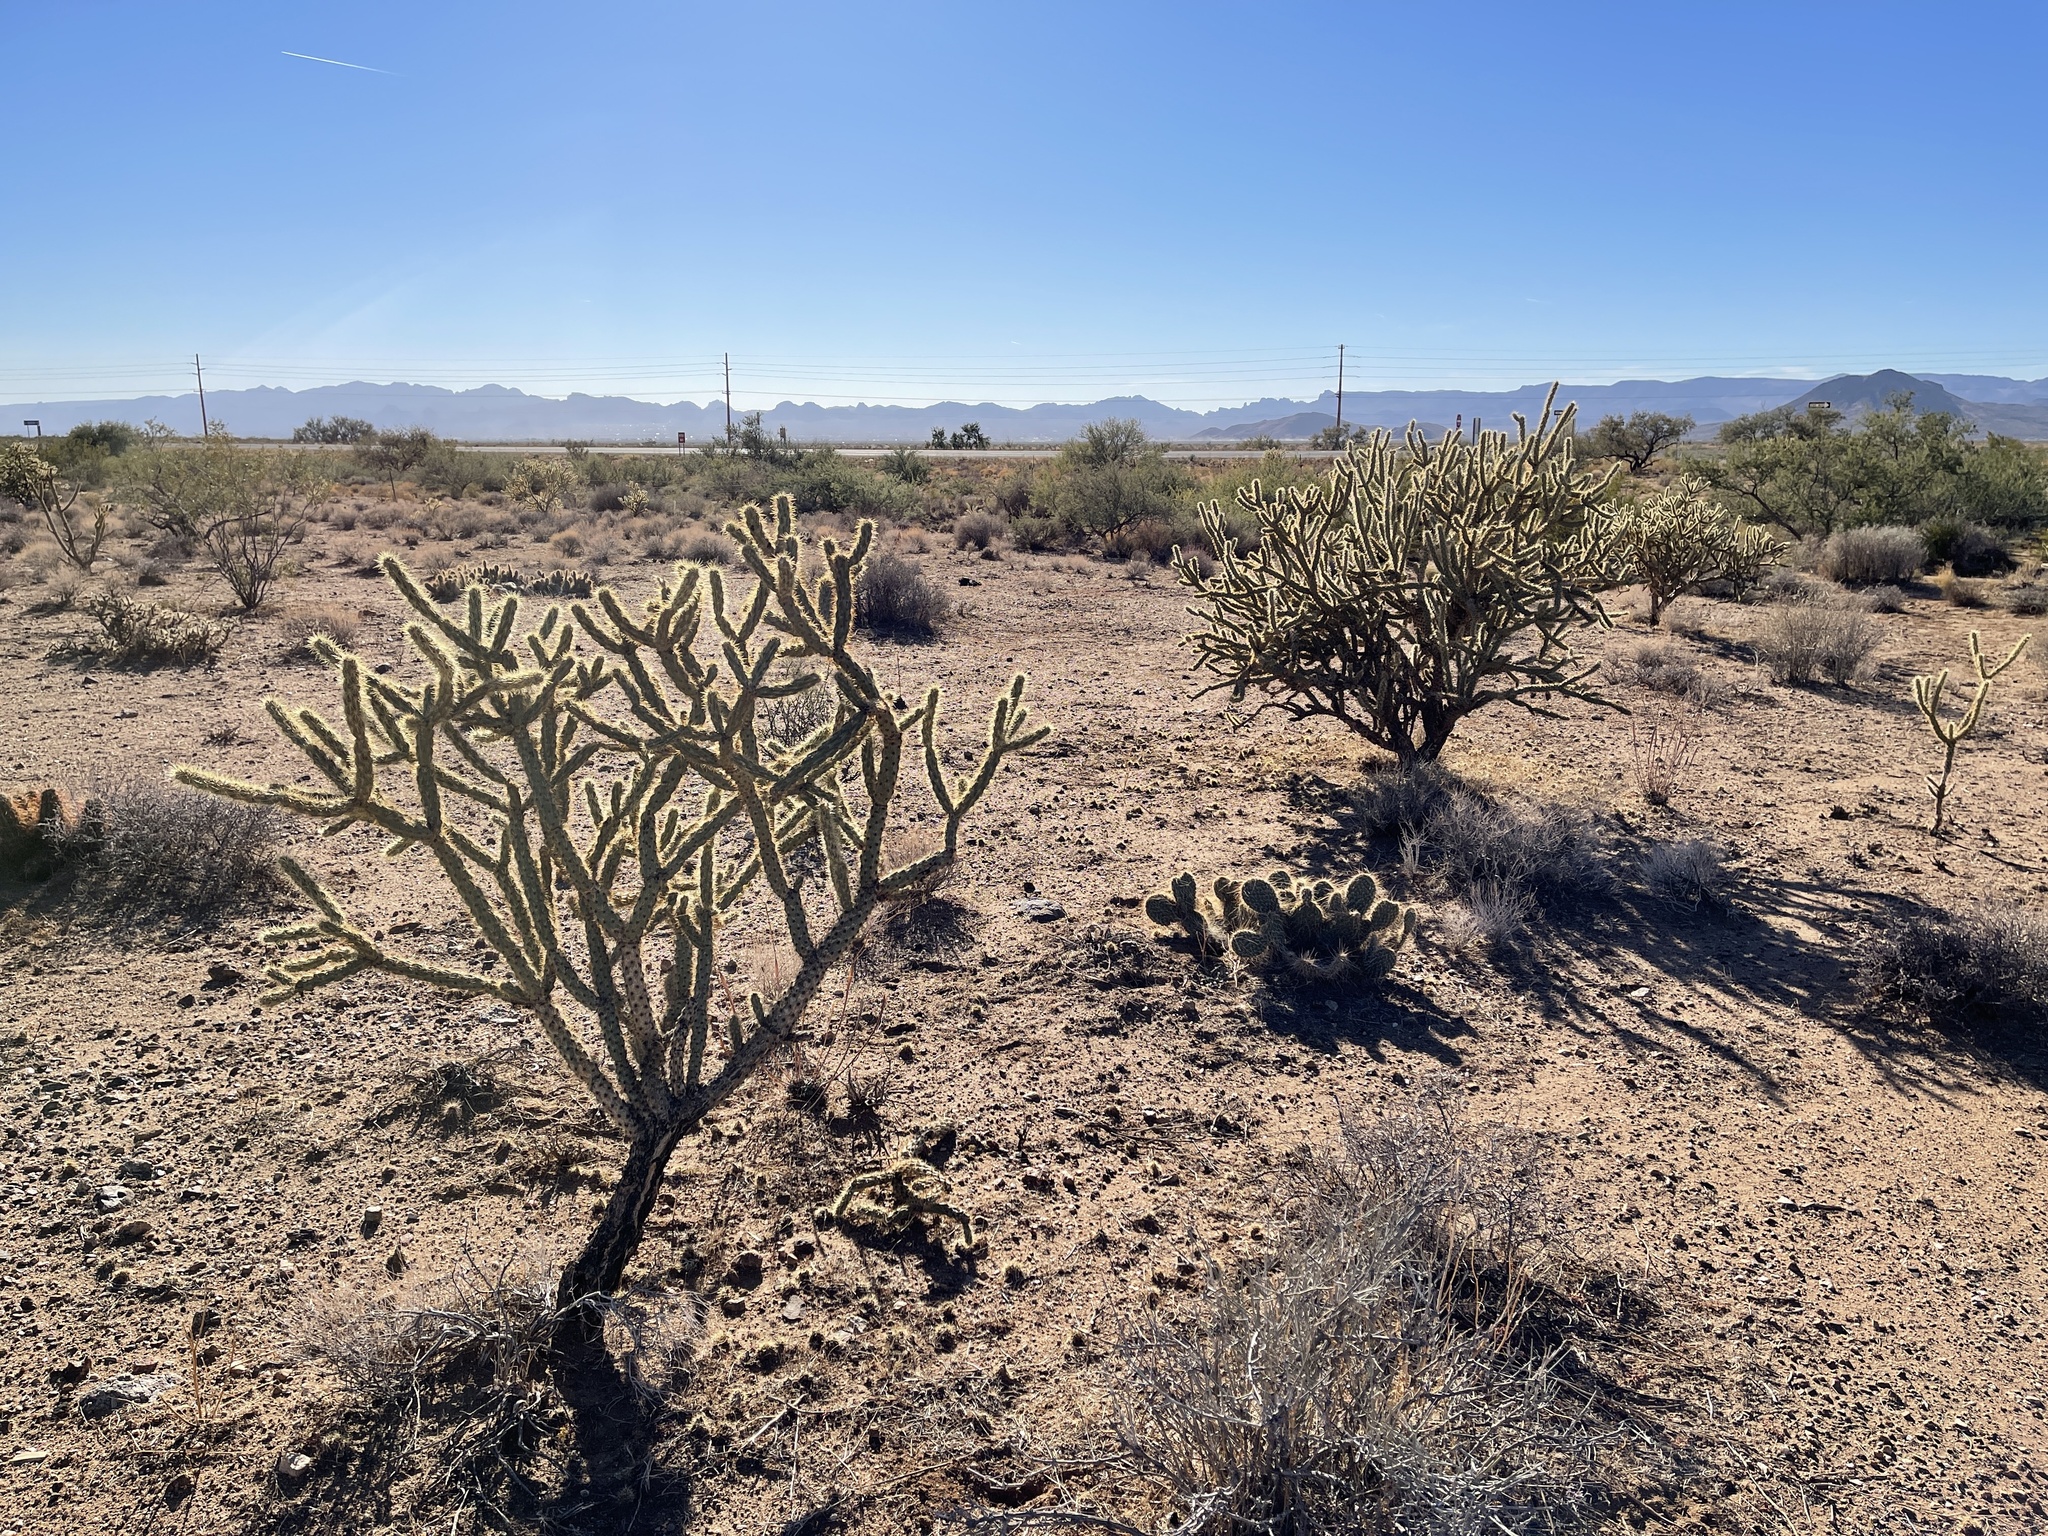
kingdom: Plantae
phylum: Tracheophyta
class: Magnoliopsida
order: Caryophyllales
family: Cactaceae
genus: Cylindropuntia
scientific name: Cylindropuntia acanthocarpa
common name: Buckhorn cholla
